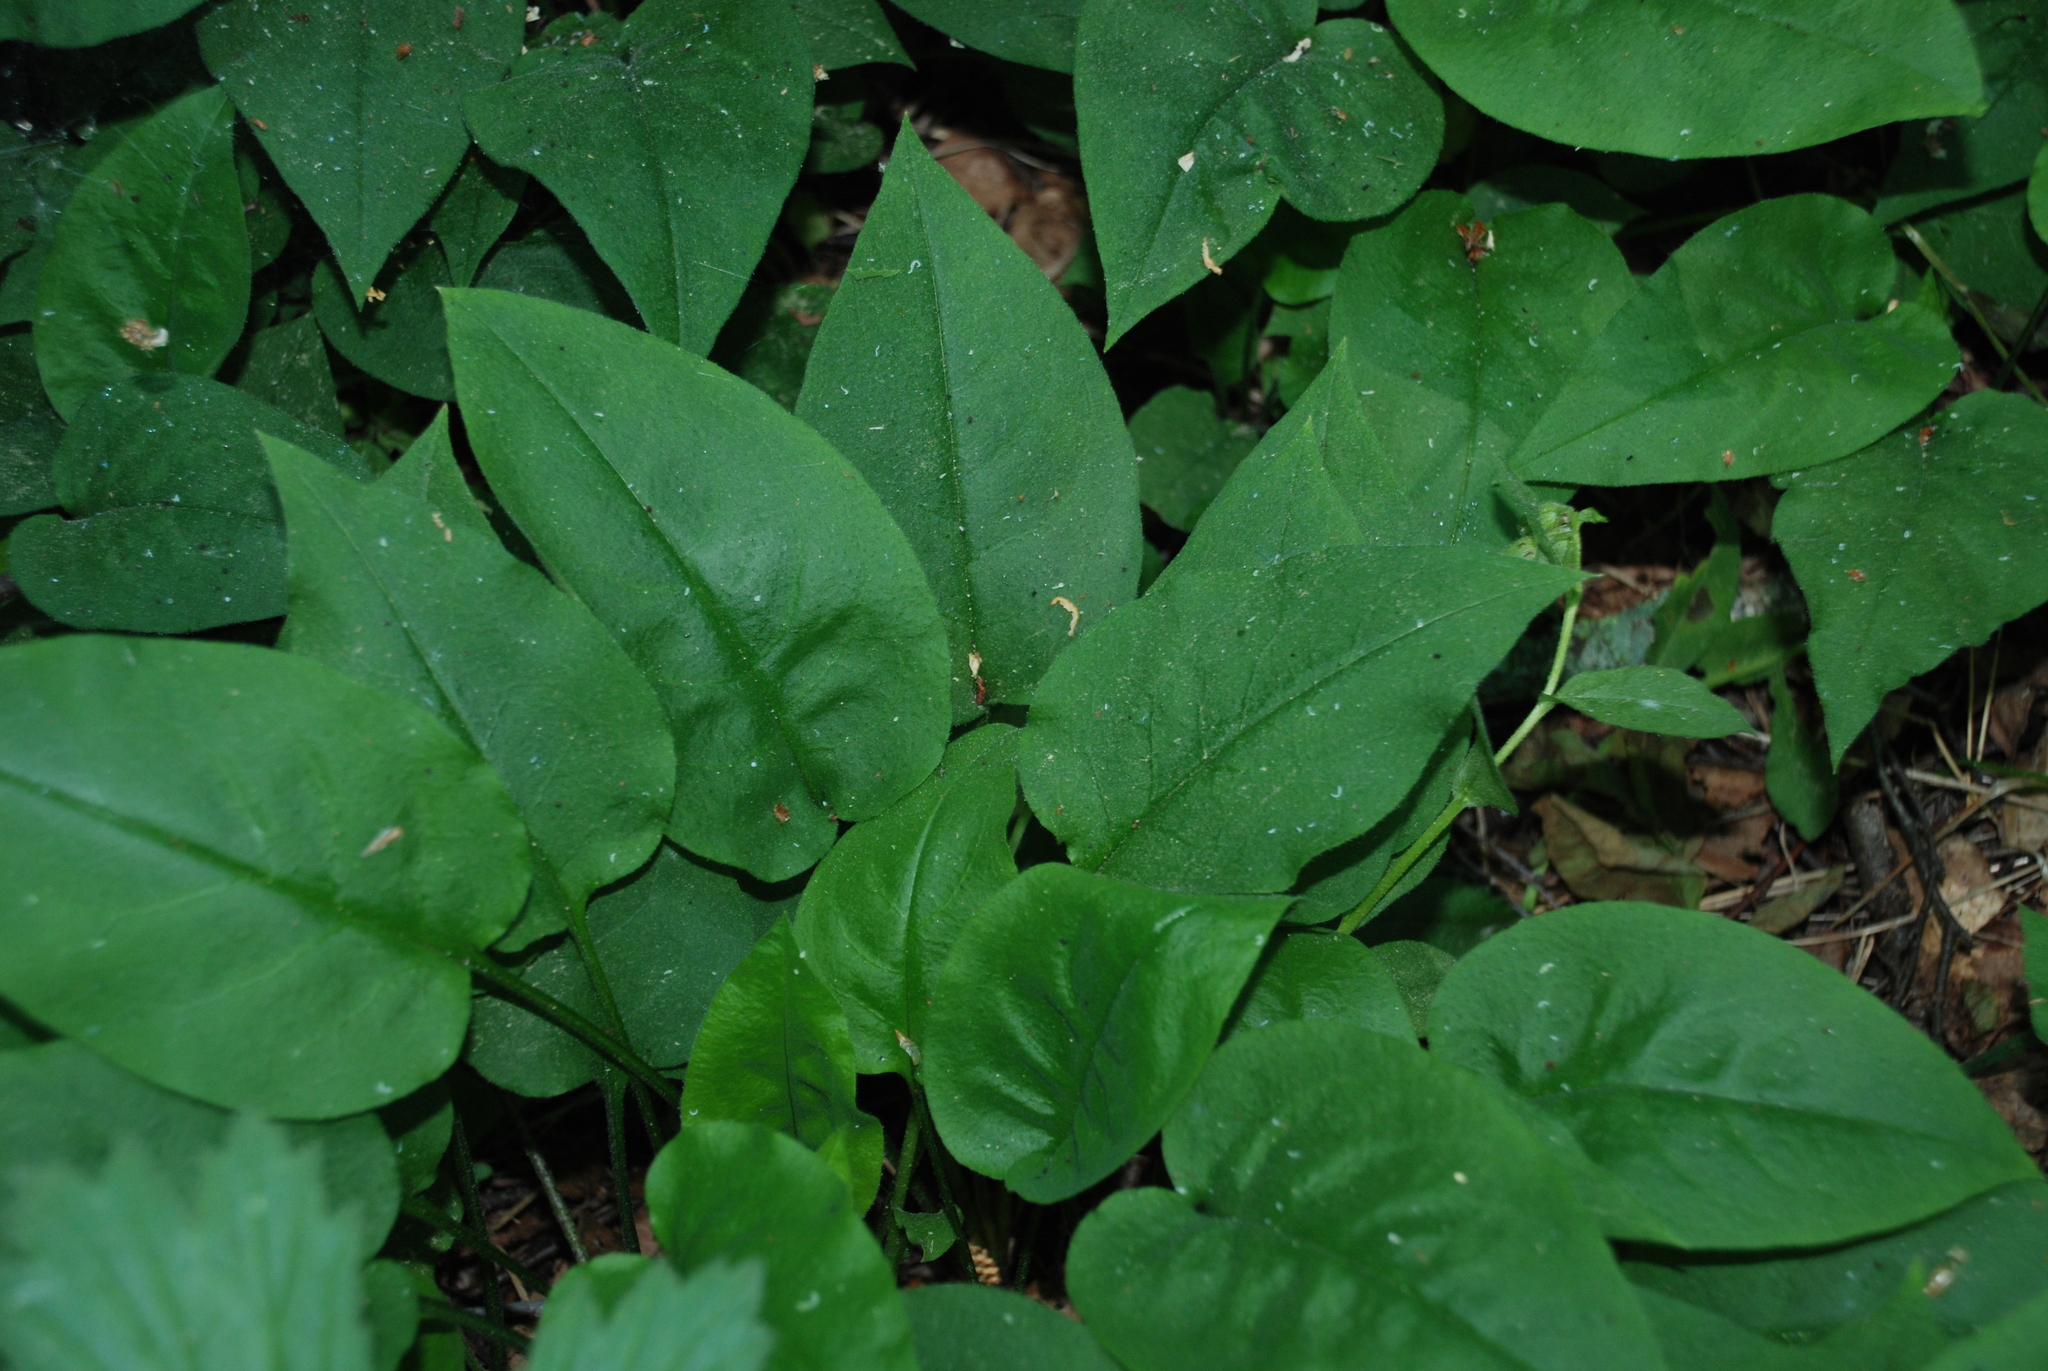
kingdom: Plantae
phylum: Tracheophyta
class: Magnoliopsida
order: Boraginales
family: Boraginaceae
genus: Pulmonaria
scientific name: Pulmonaria obscura
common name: Suffolk lungwort
